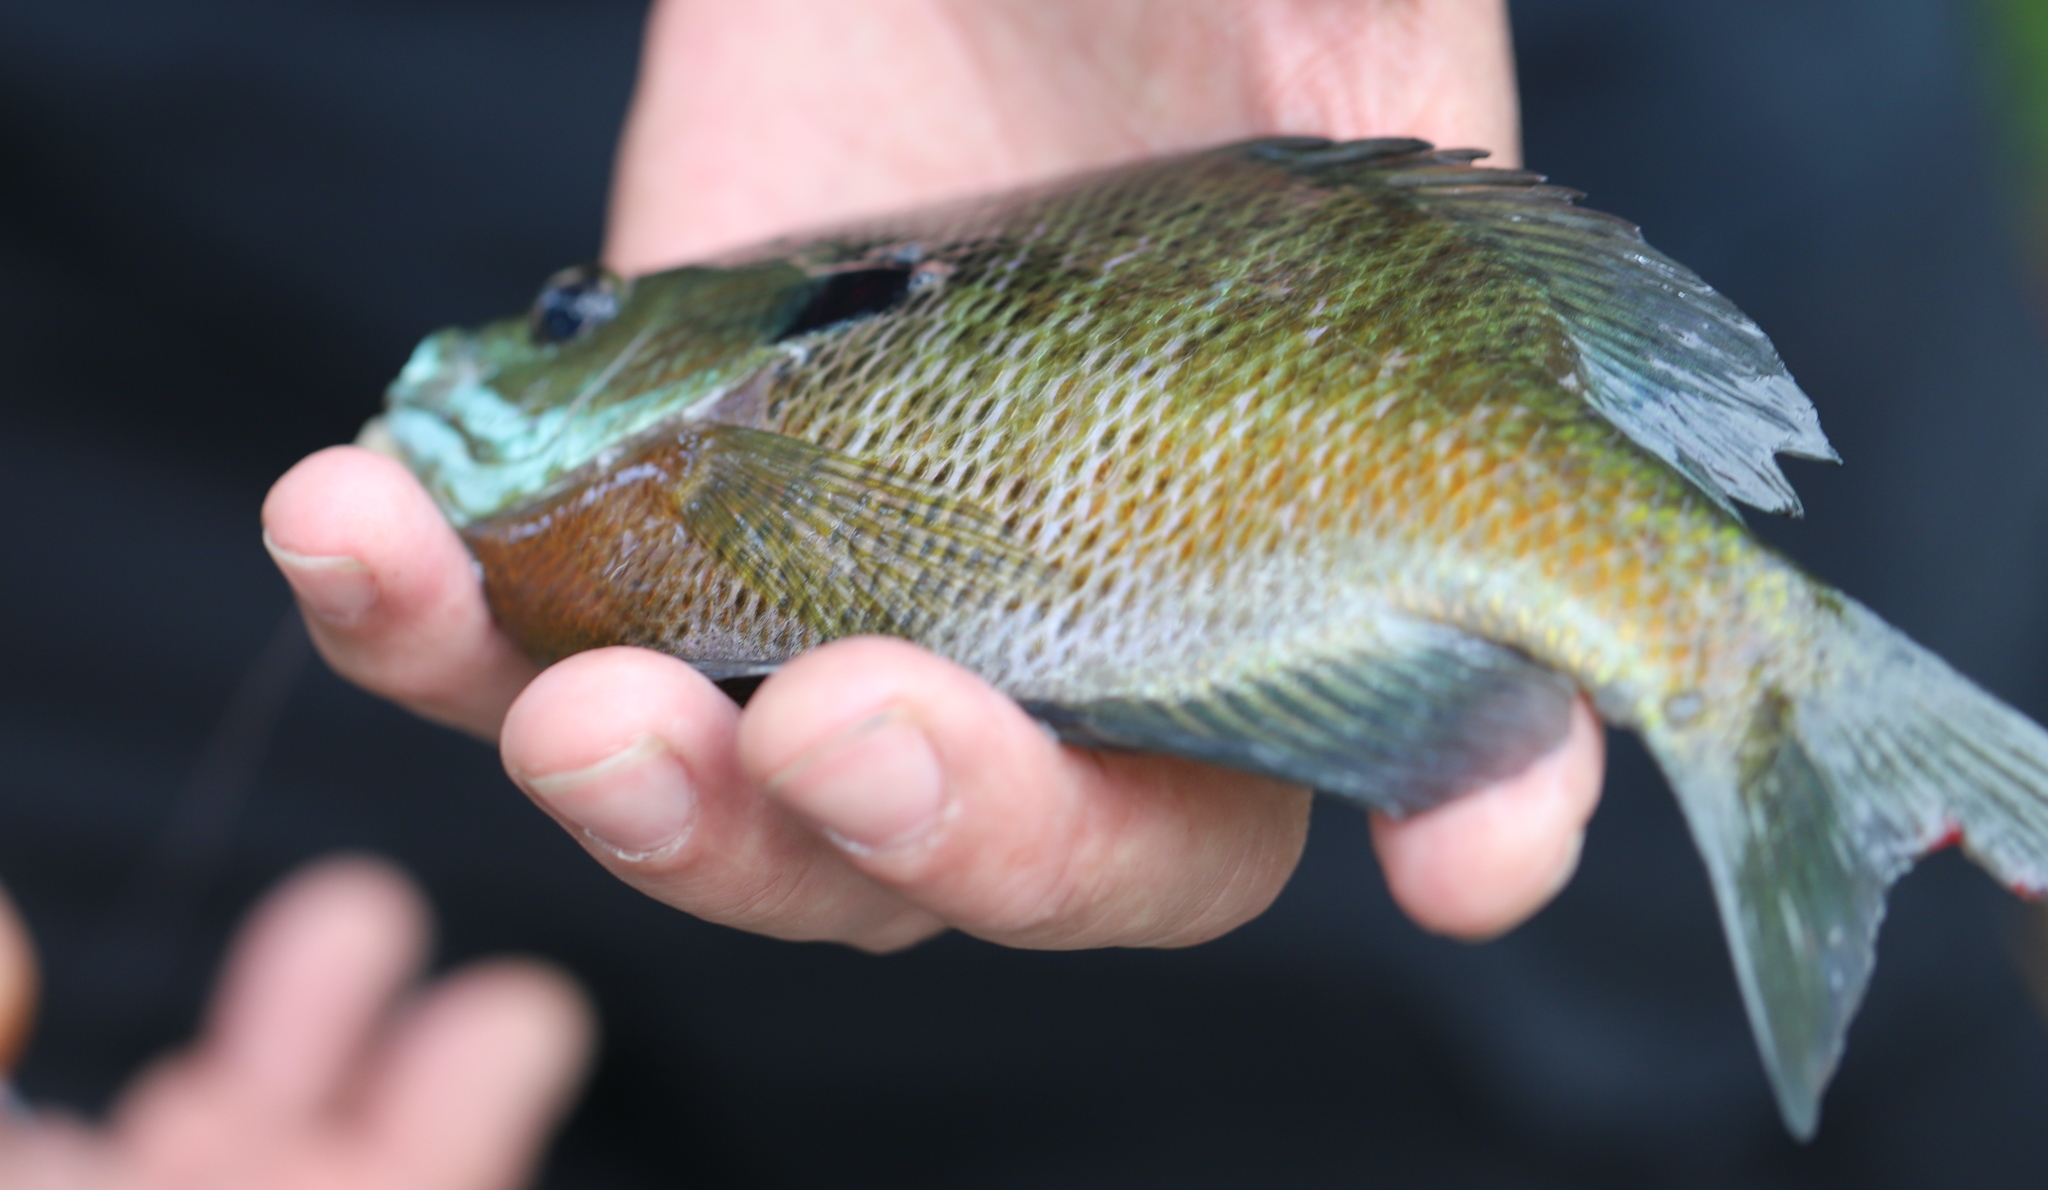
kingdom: Animalia
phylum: Chordata
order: Perciformes
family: Centrarchidae
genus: Lepomis
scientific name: Lepomis macrochirus
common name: Bluegill
